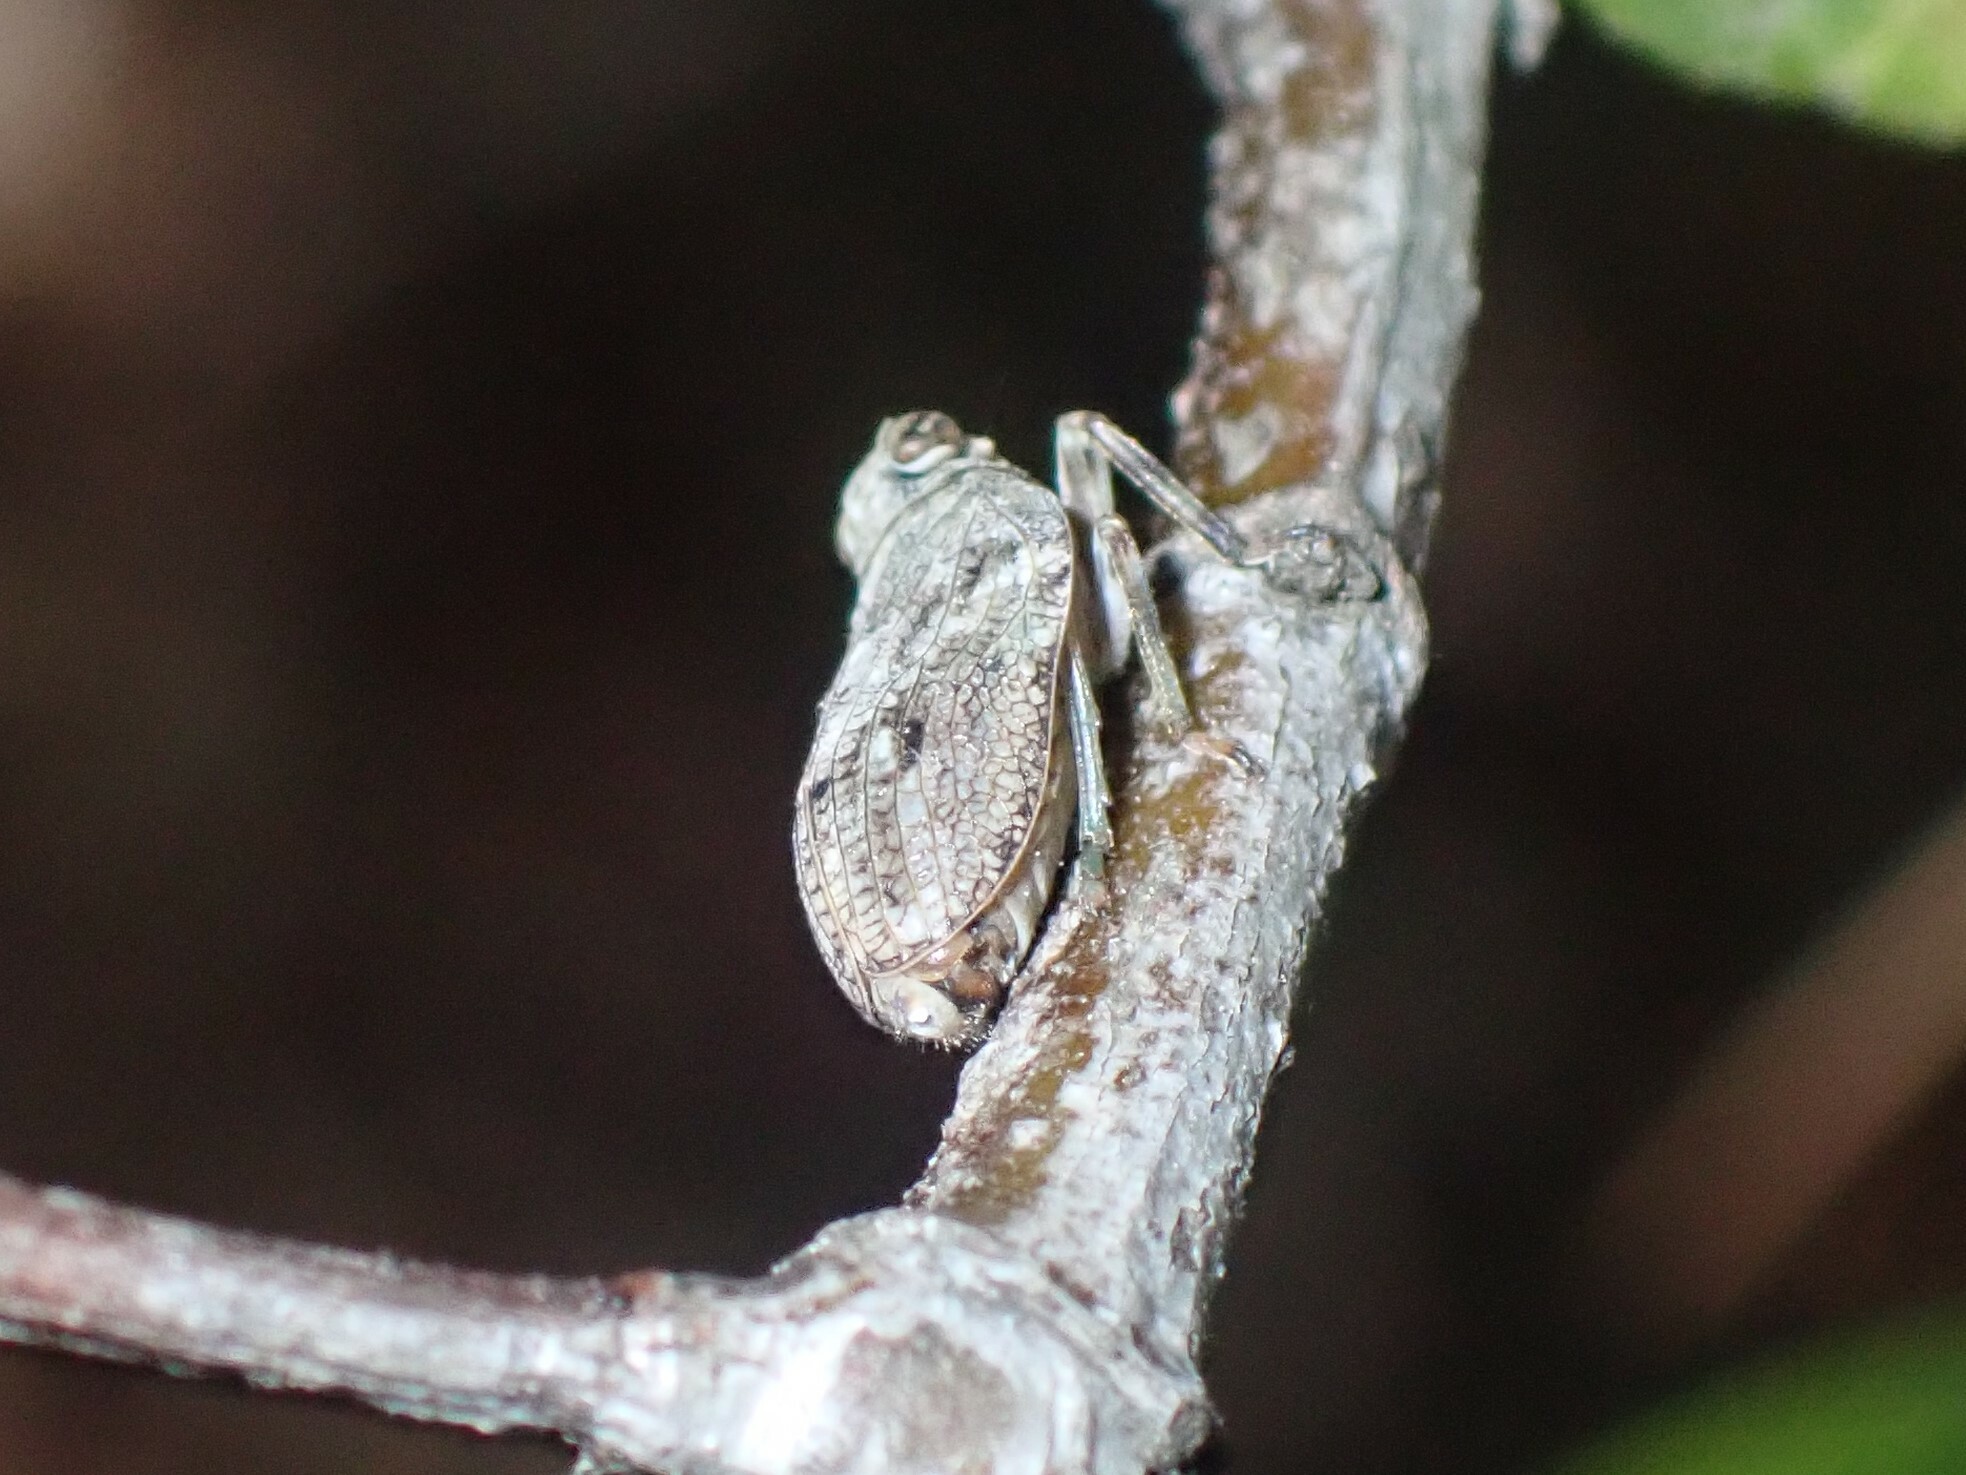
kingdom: Animalia
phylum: Arthropoda
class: Insecta
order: Hemiptera
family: Issidae
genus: Issus
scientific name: Issus coleoptratus
